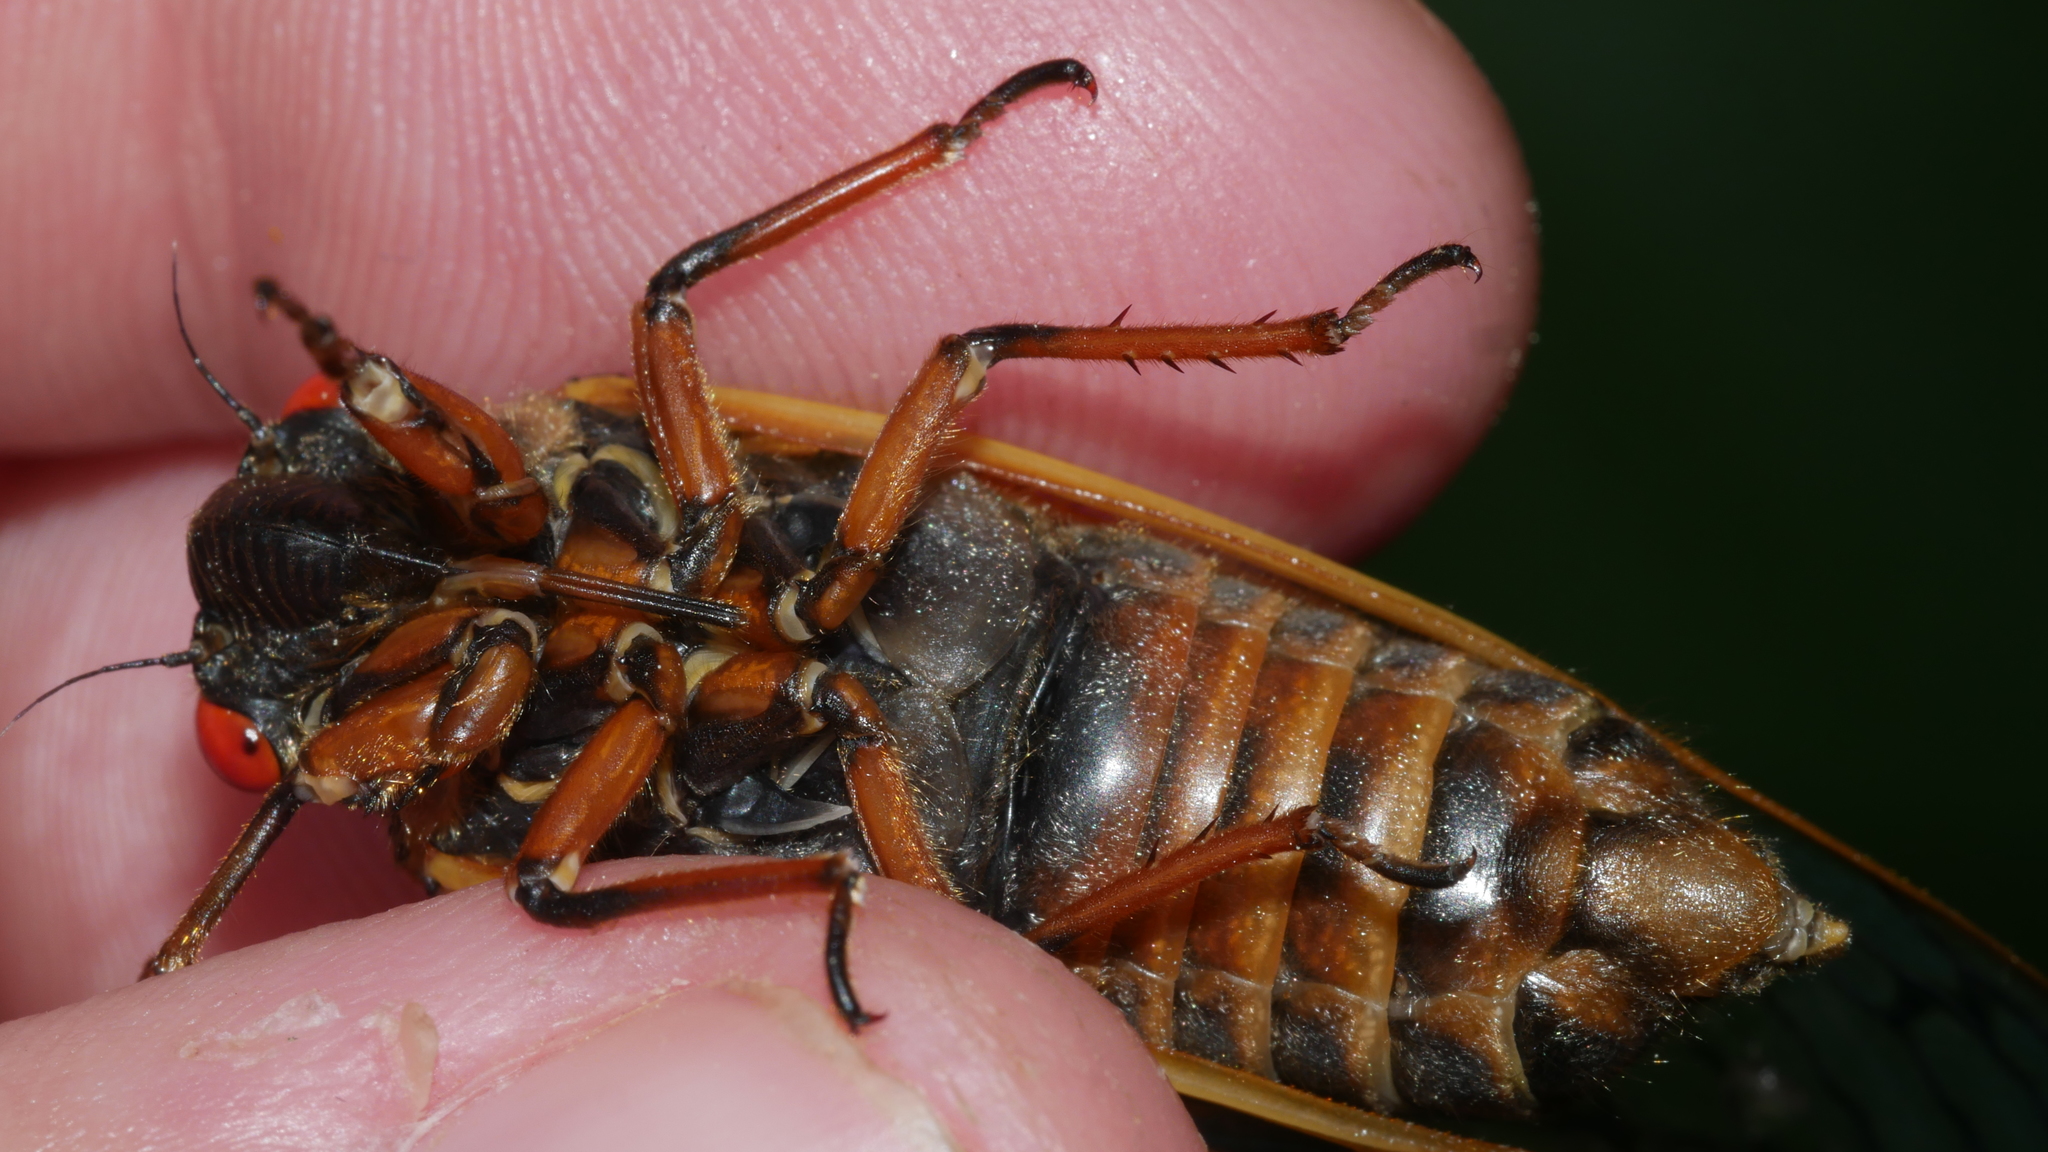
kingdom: Animalia
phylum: Arthropoda
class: Insecta
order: Hemiptera
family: Cicadidae
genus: Magicicada
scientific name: Magicicada septendecim
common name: Periodical cicada
